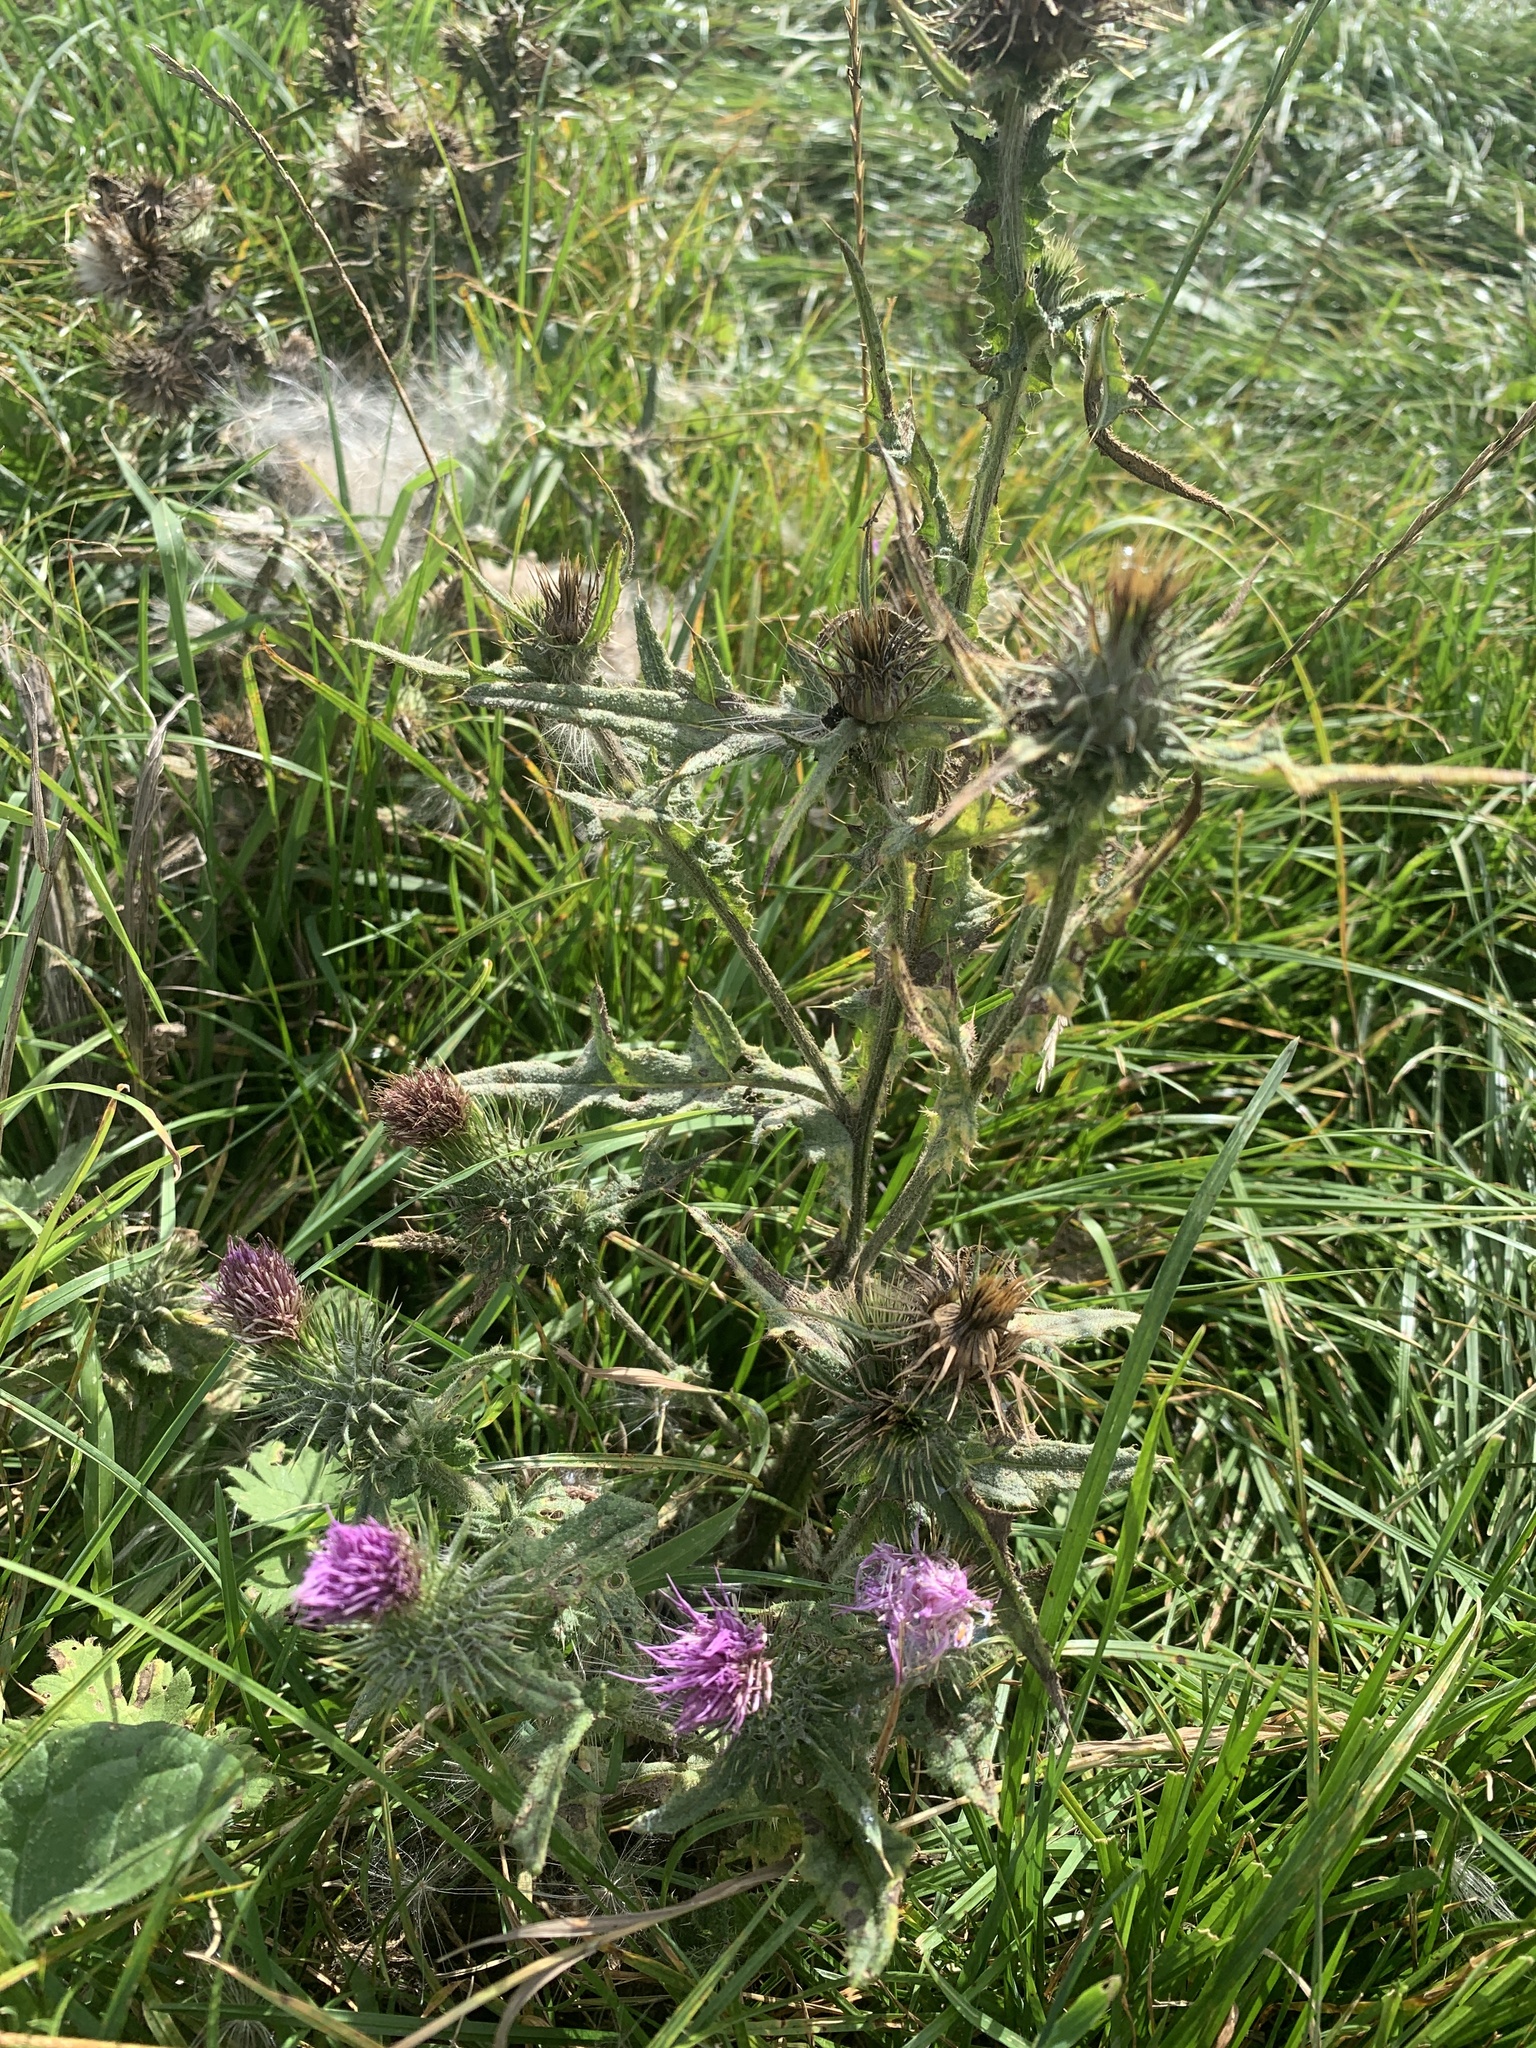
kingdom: Plantae
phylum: Tracheophyta
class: Magnoliopsida
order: Asterales
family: Asteraceae
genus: Cirsium
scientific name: Cirsium vulgare
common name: Bull thistle
